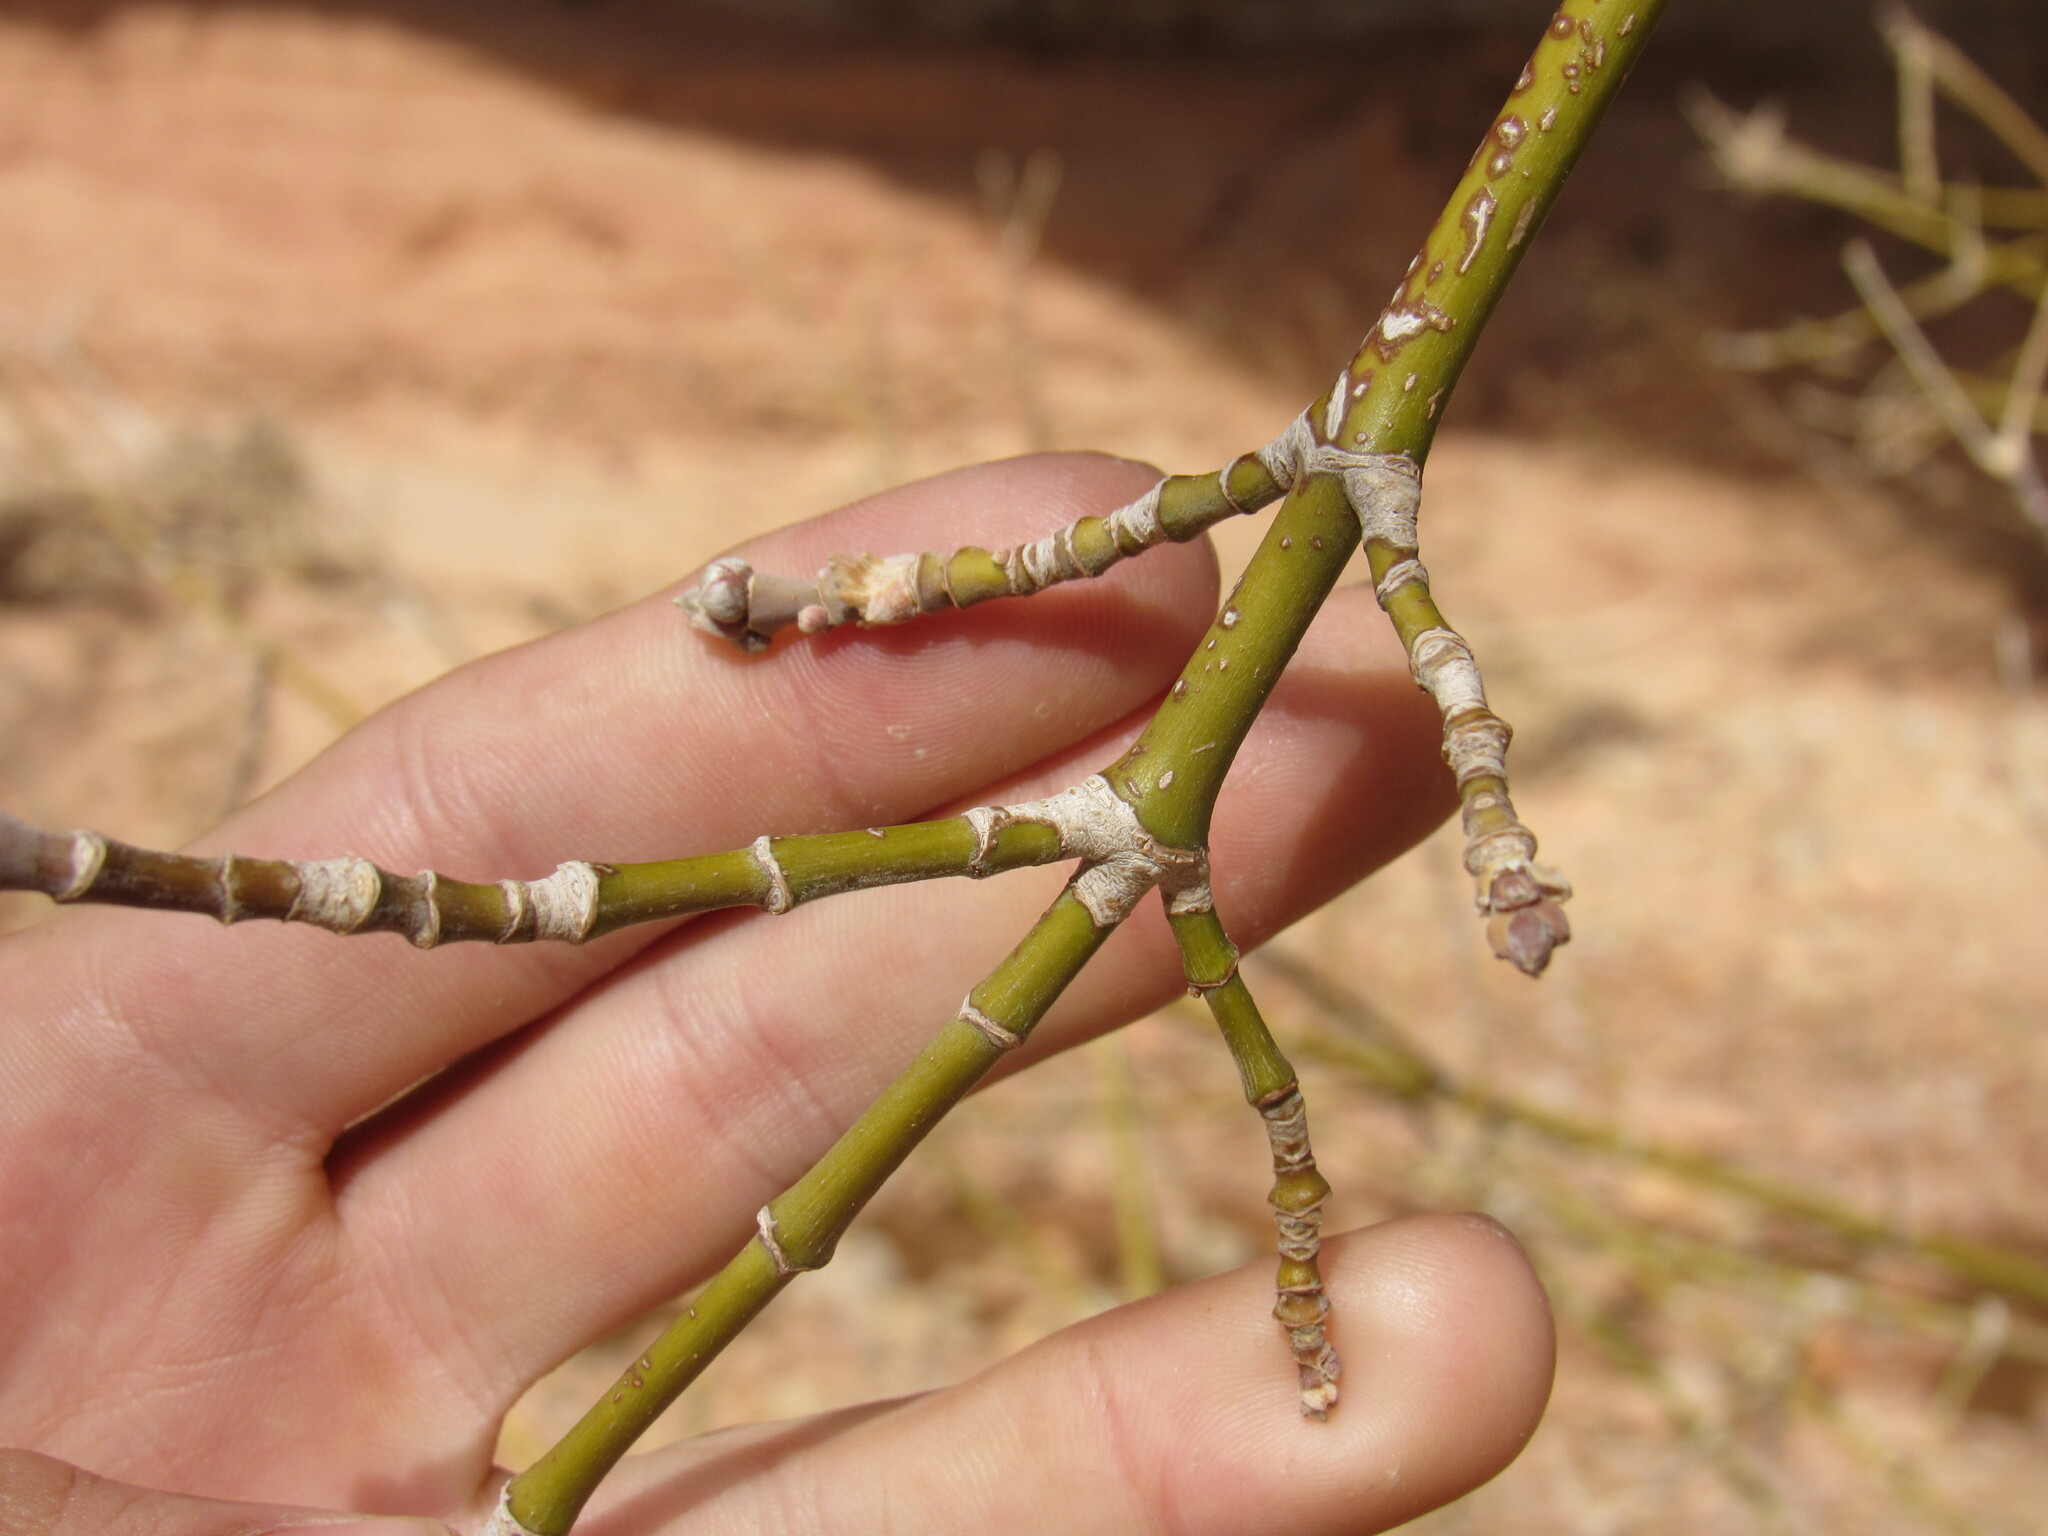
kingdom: Plantae
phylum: Tracheophyta
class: Magnoliopsida
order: Sapindales
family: Sapindaceae
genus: Acer
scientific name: Acer negundo
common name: Ashleaf maple
